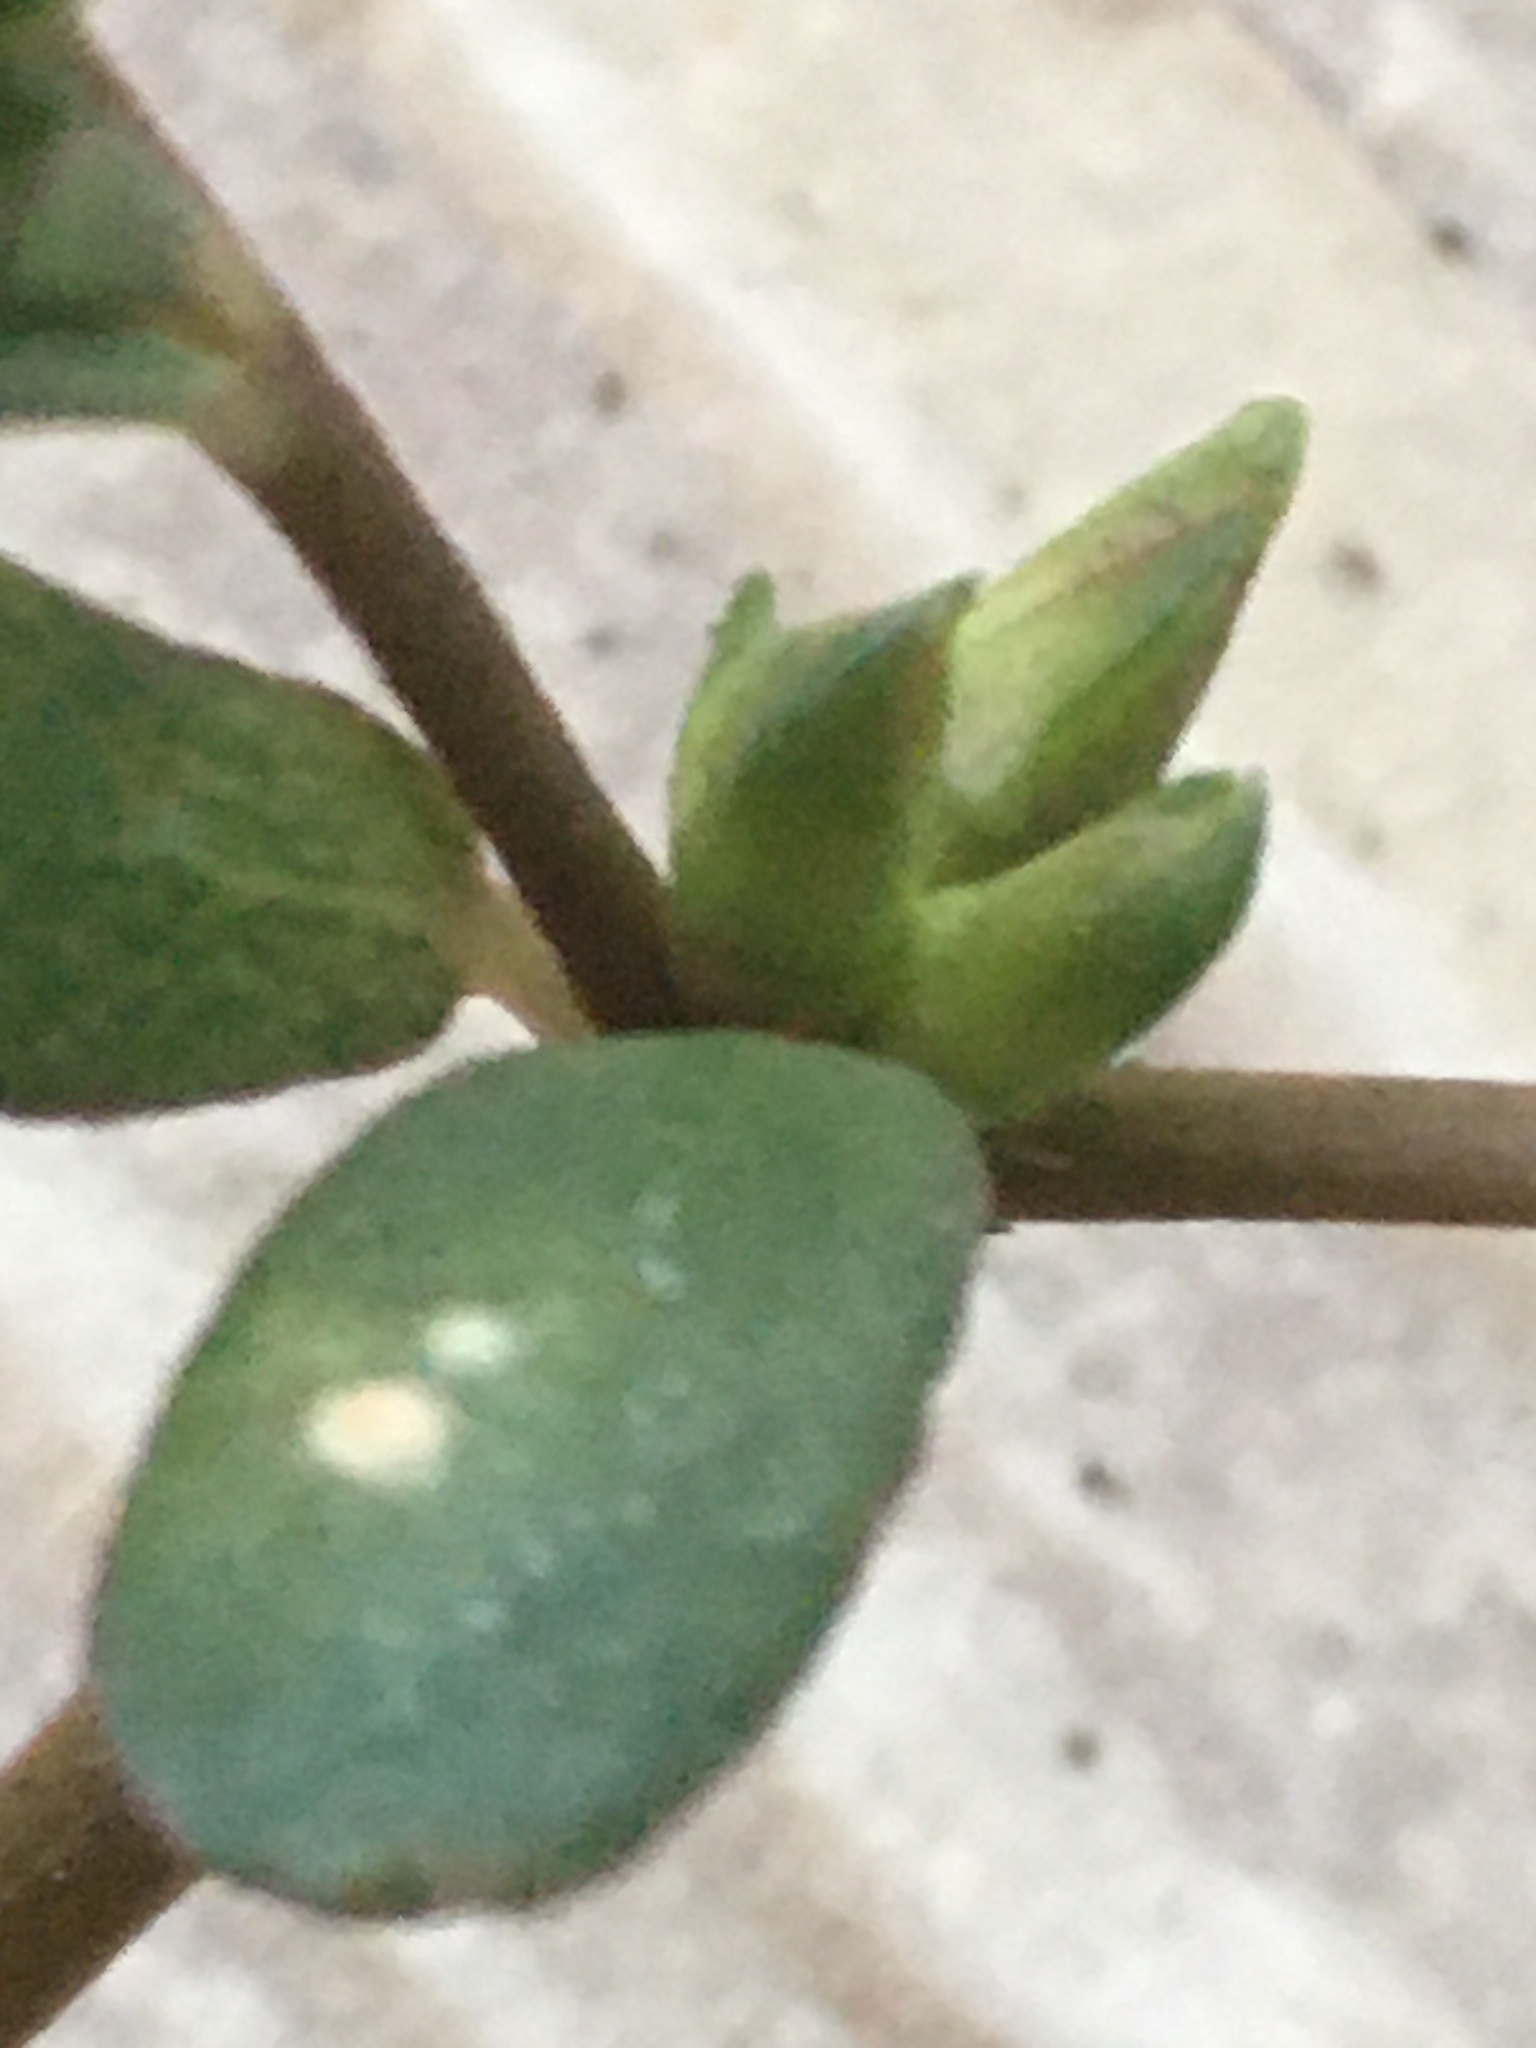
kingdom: Plantae
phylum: Tracheophyta
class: Magnoliopsida
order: Caryophyllales
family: Portulacaceae
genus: Portulaca
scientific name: Portulaca oleracea
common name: Common purslane
